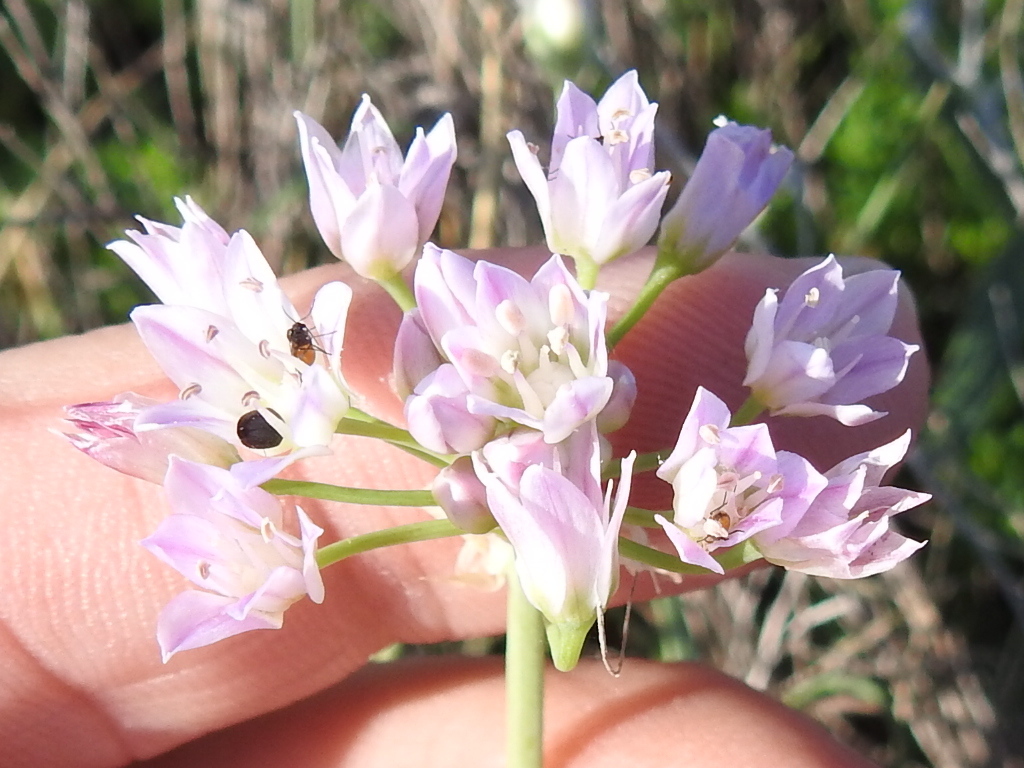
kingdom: Plantae
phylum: Tracheophyta
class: Liliopsida
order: Asparagales
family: Amaryllidaceae
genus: Allium
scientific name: Allium drummondii
